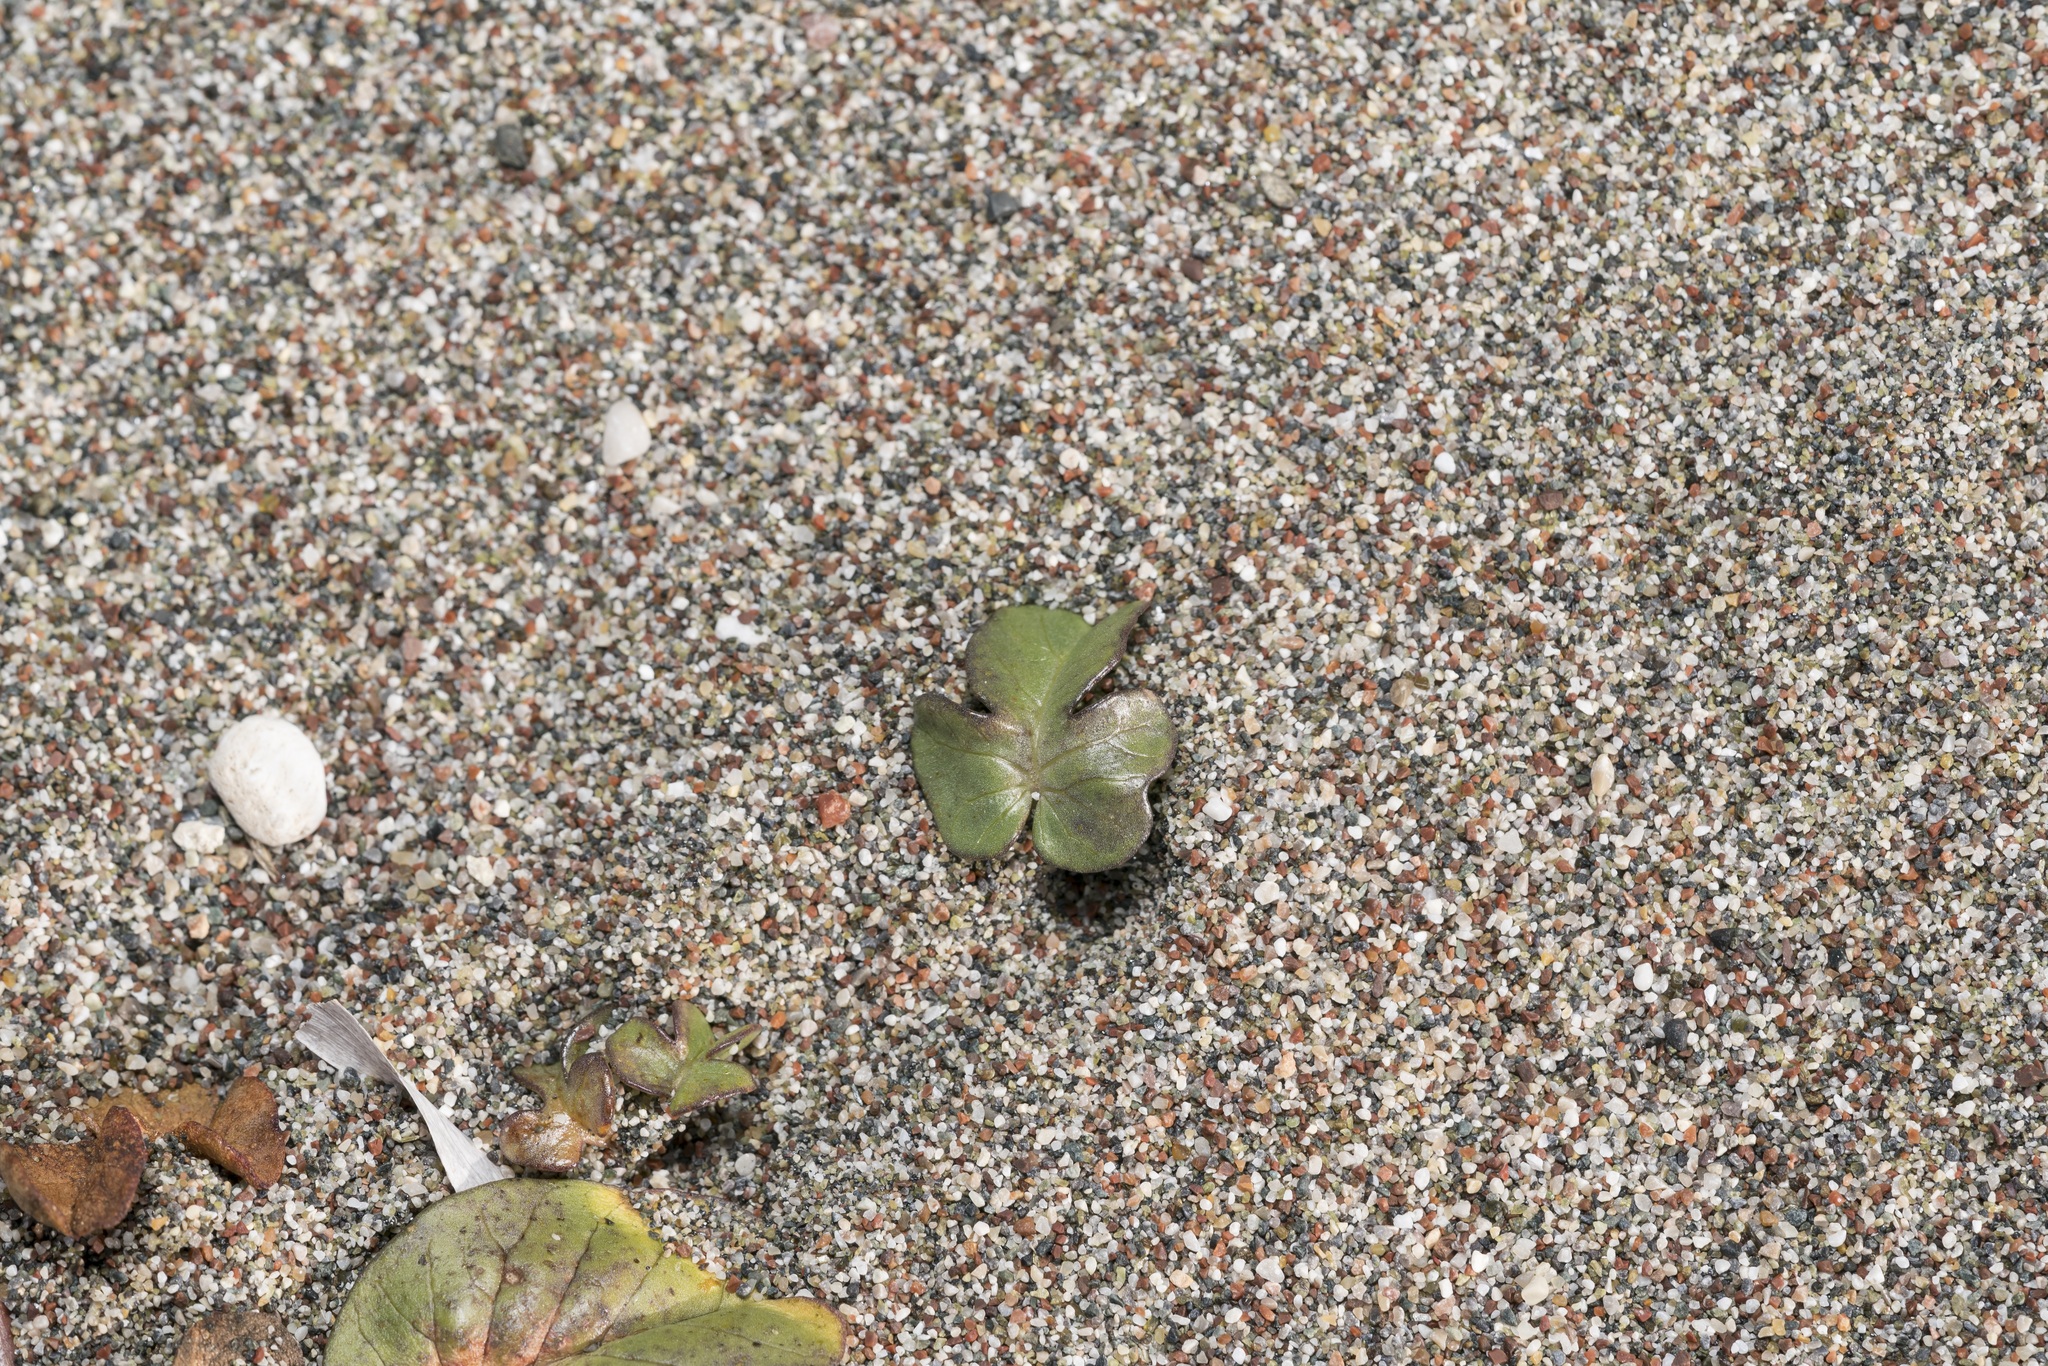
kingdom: Plantae
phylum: Tracheophyta
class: Magnoliopsida
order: Solanales
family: Convolvulaceae
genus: Ipomoea
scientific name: Ipomoea imperati
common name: Fiddle-leaf morning-glory
